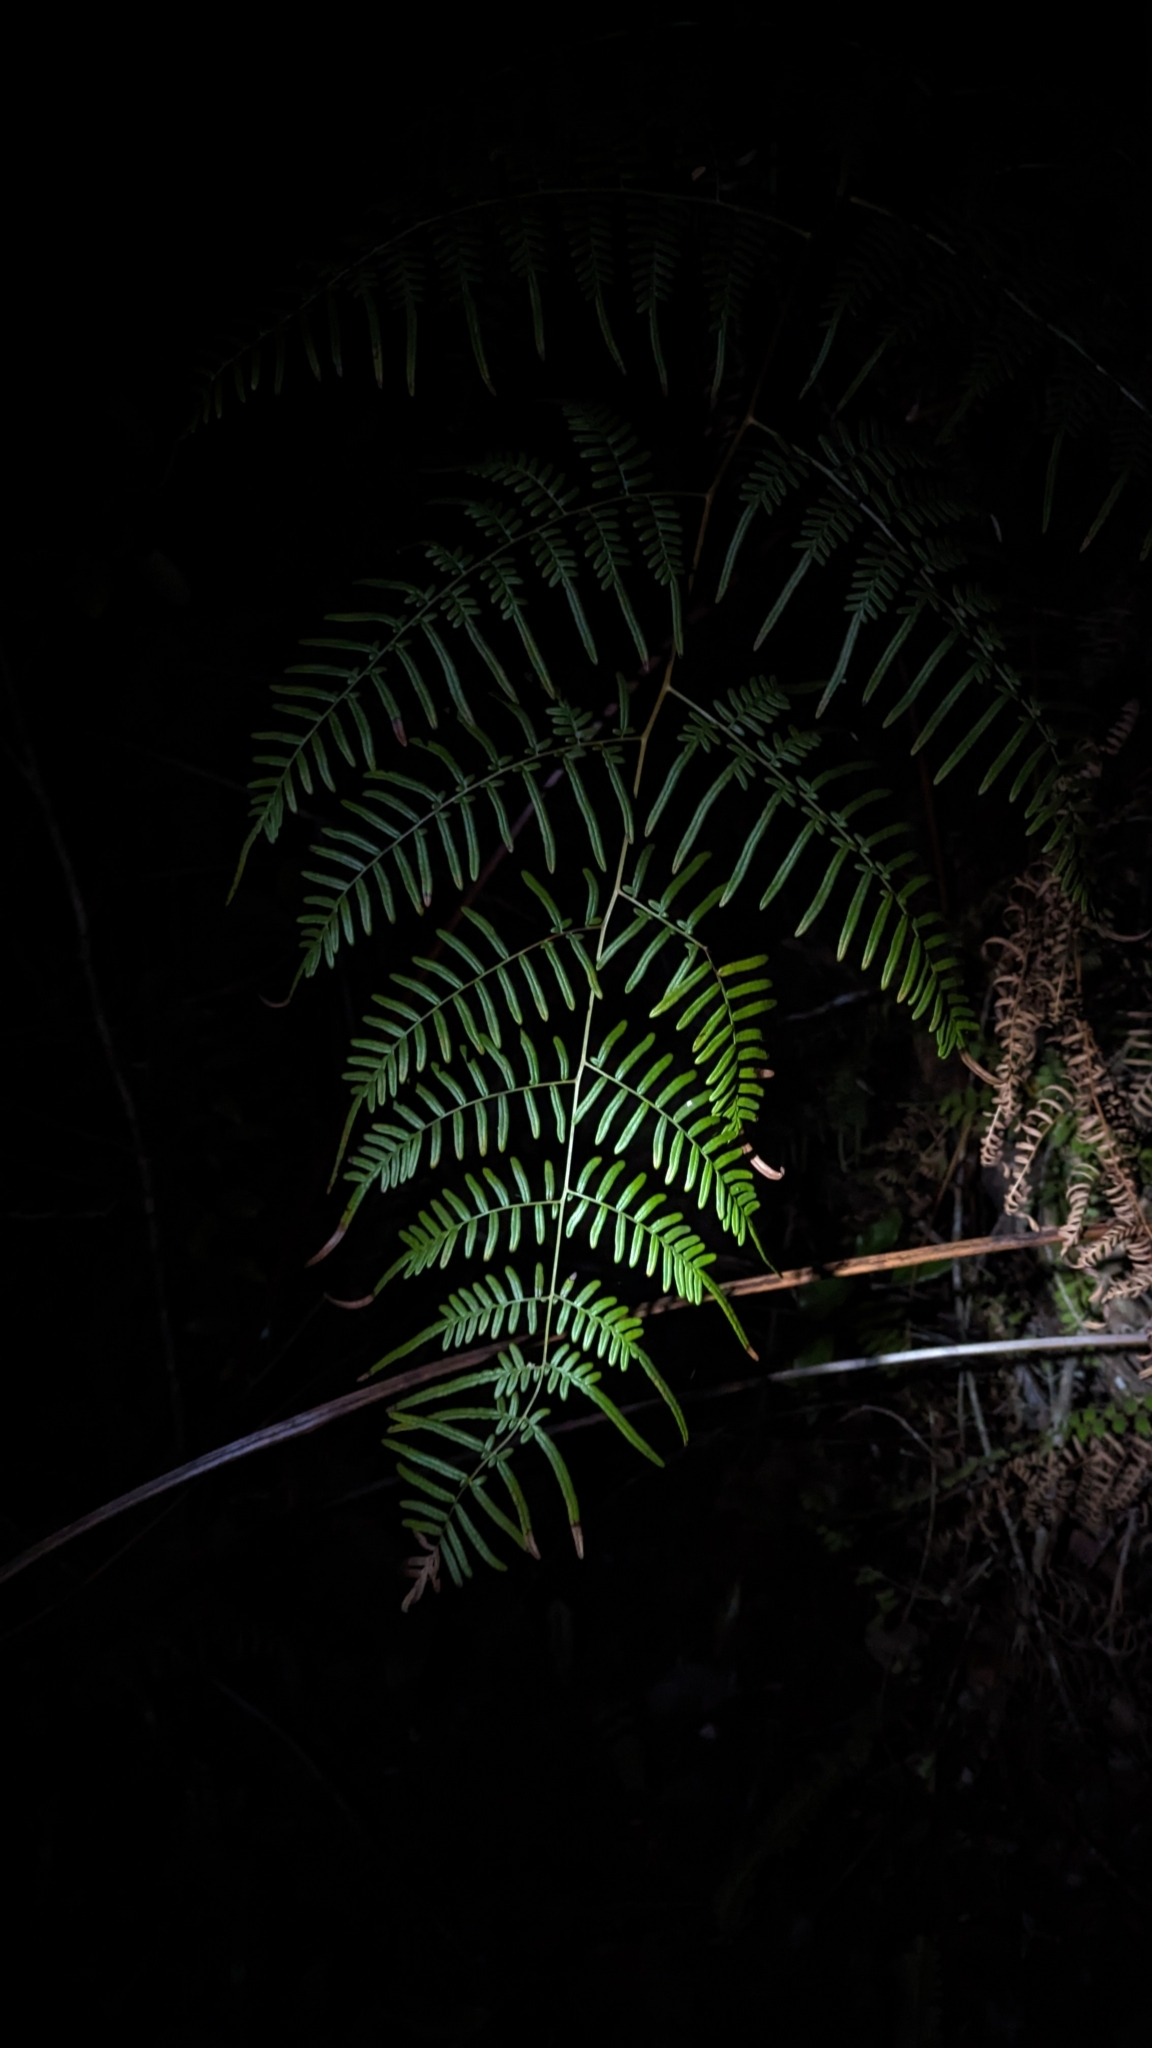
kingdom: Plantae
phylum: Tracheophyta
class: Polypodiopsida
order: Polypodiales
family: Dennstaedtiaceae
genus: Pteridium
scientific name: Pteridium caudatum
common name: Southern bracken fern
